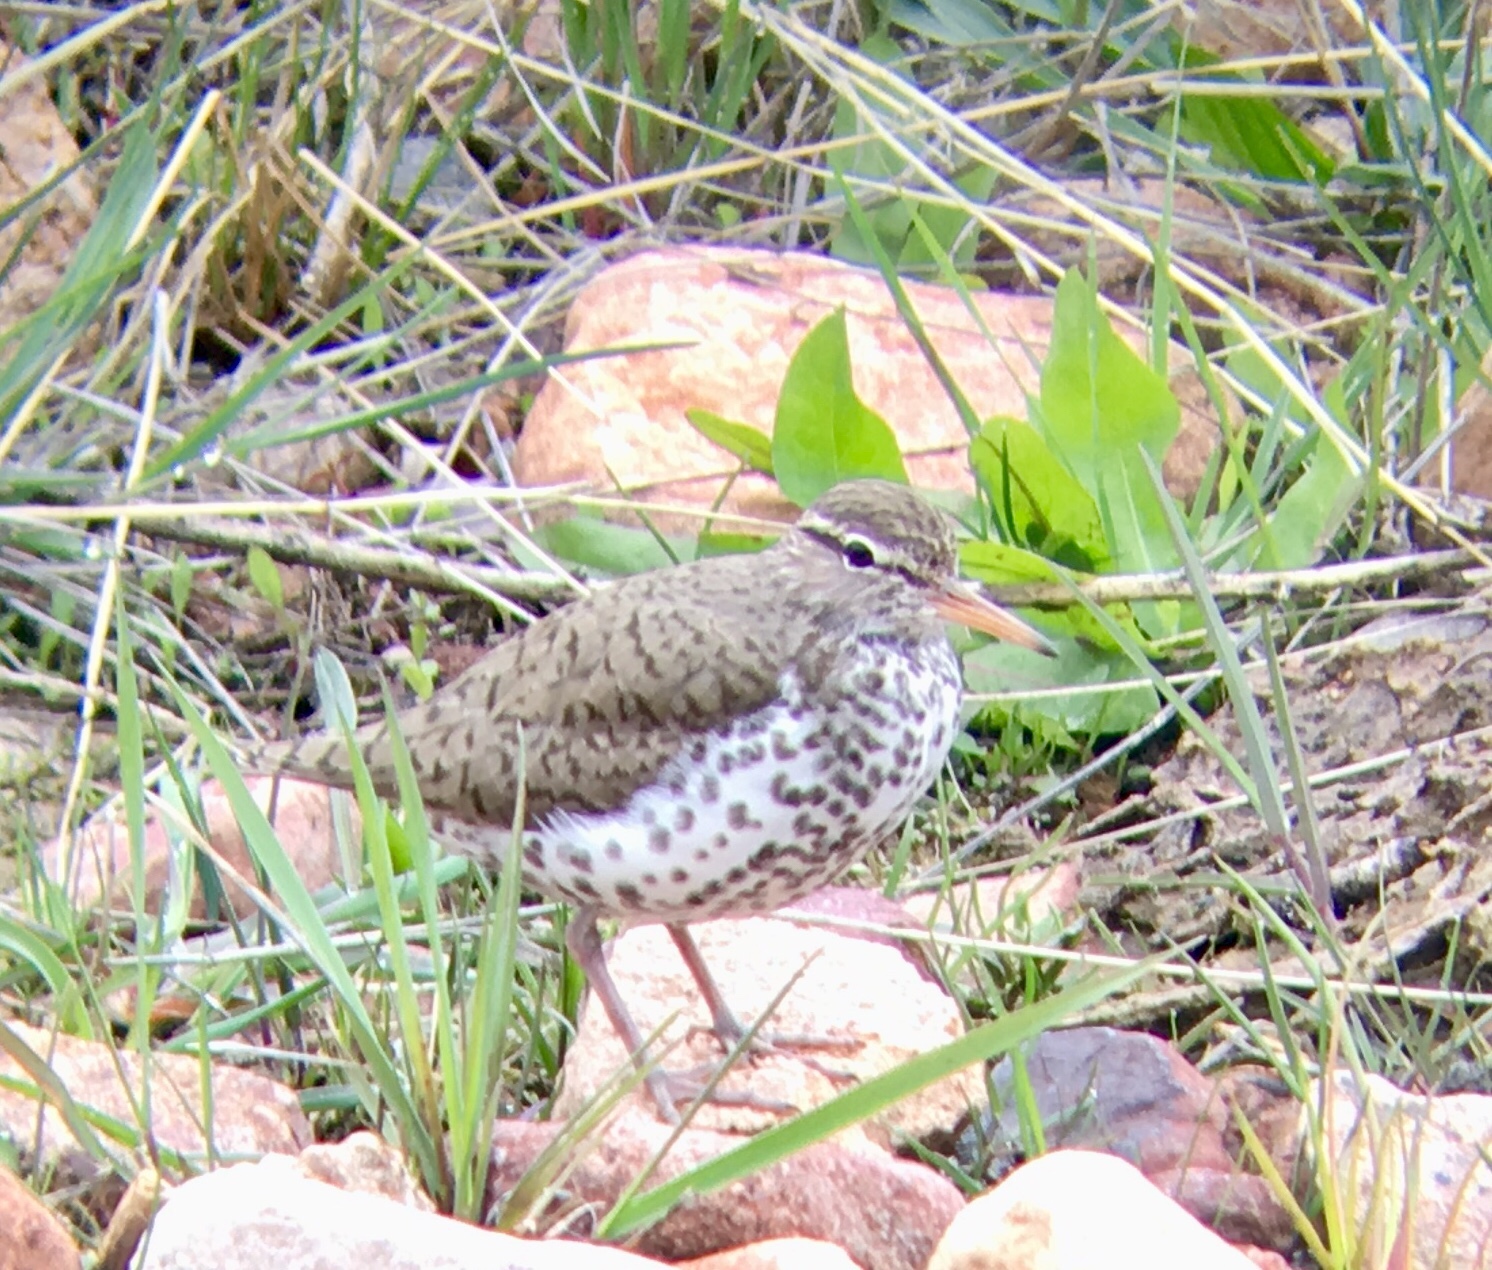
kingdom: Animalia
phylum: Chordata
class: Aves
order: Charadriiformes
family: Scolopacidae
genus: Actitis
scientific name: Actitis macularius
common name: Spotted sandpiper
